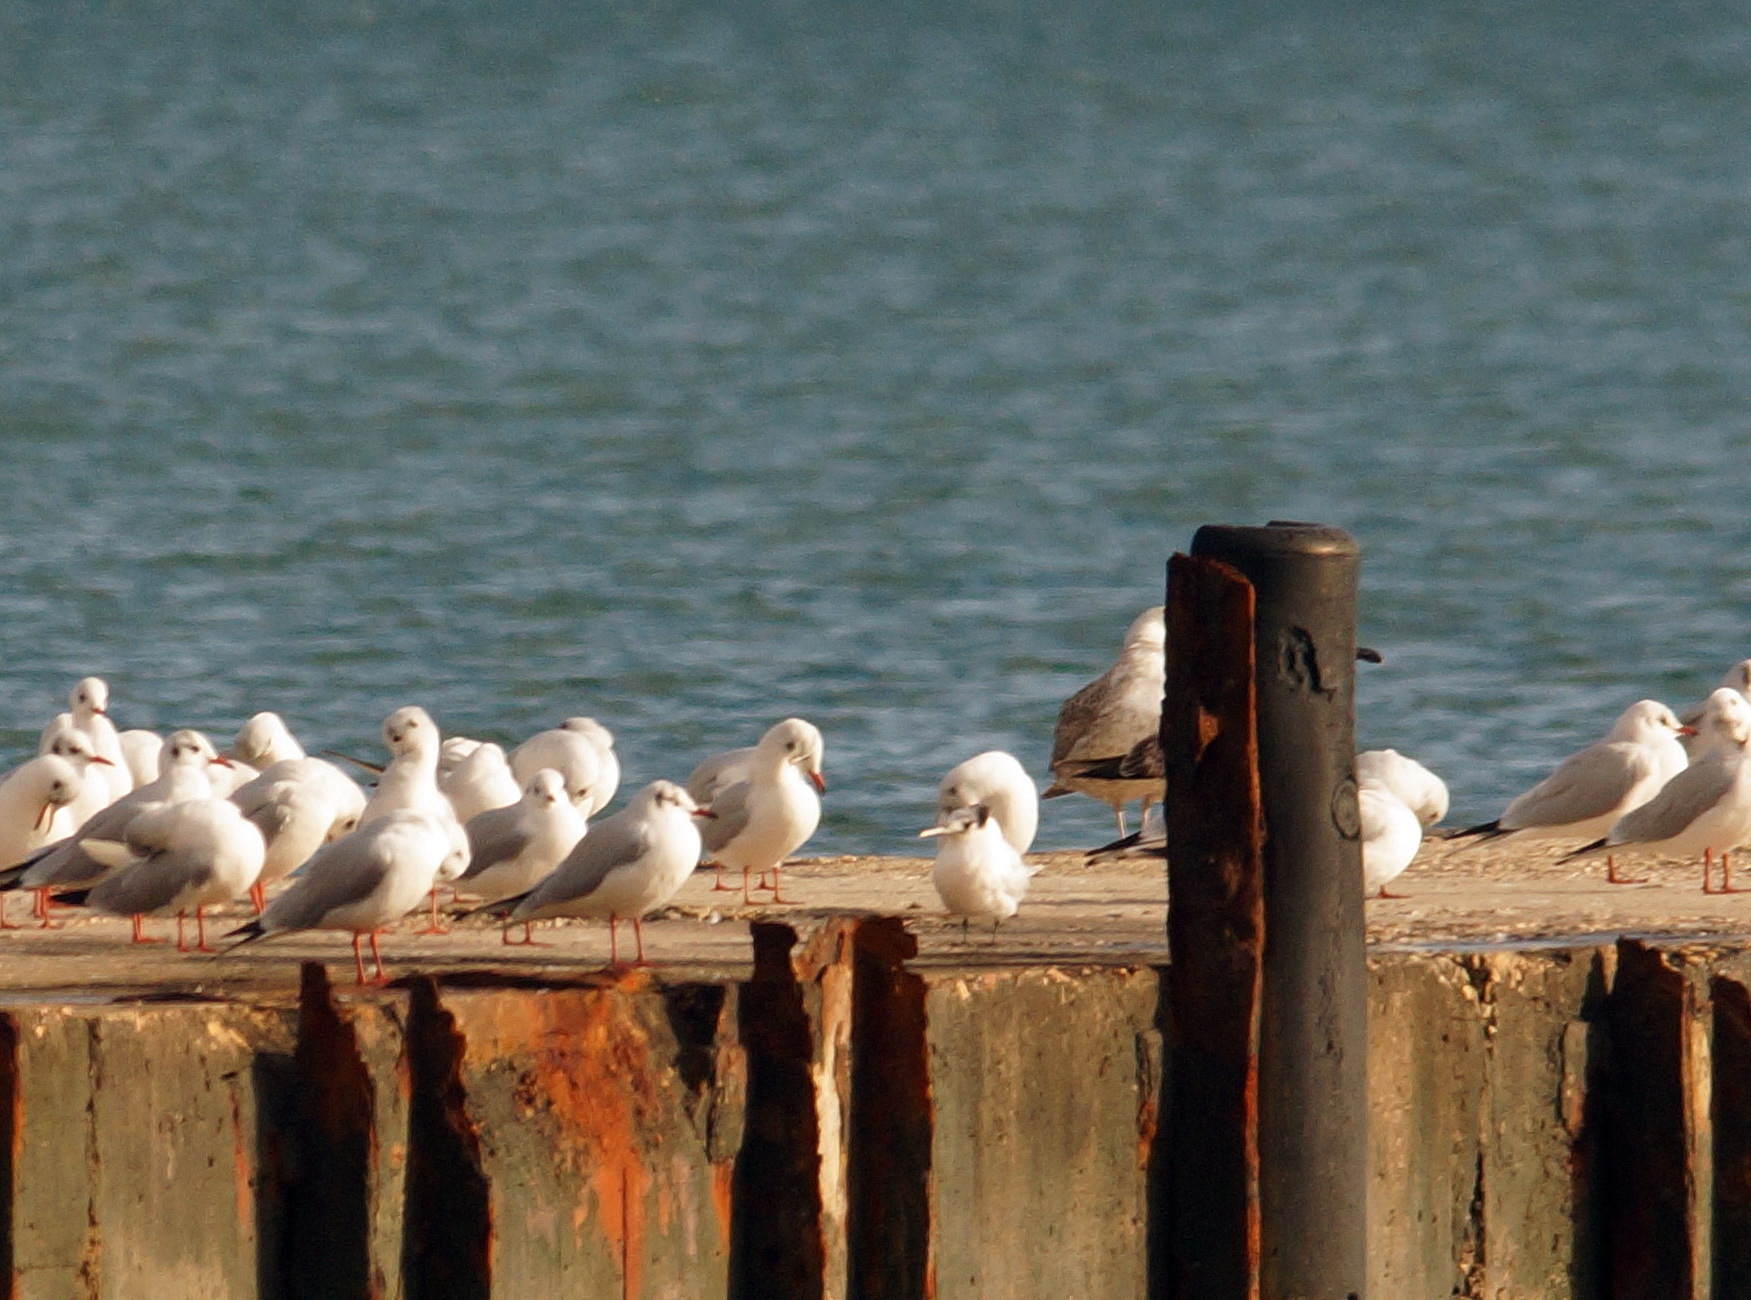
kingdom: Animalia
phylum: Chordata
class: Aves
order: Charadriiformes
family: Laridae
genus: Chroicocephalus
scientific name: Chroicocephalus ridibundus
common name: Black-headed gull
